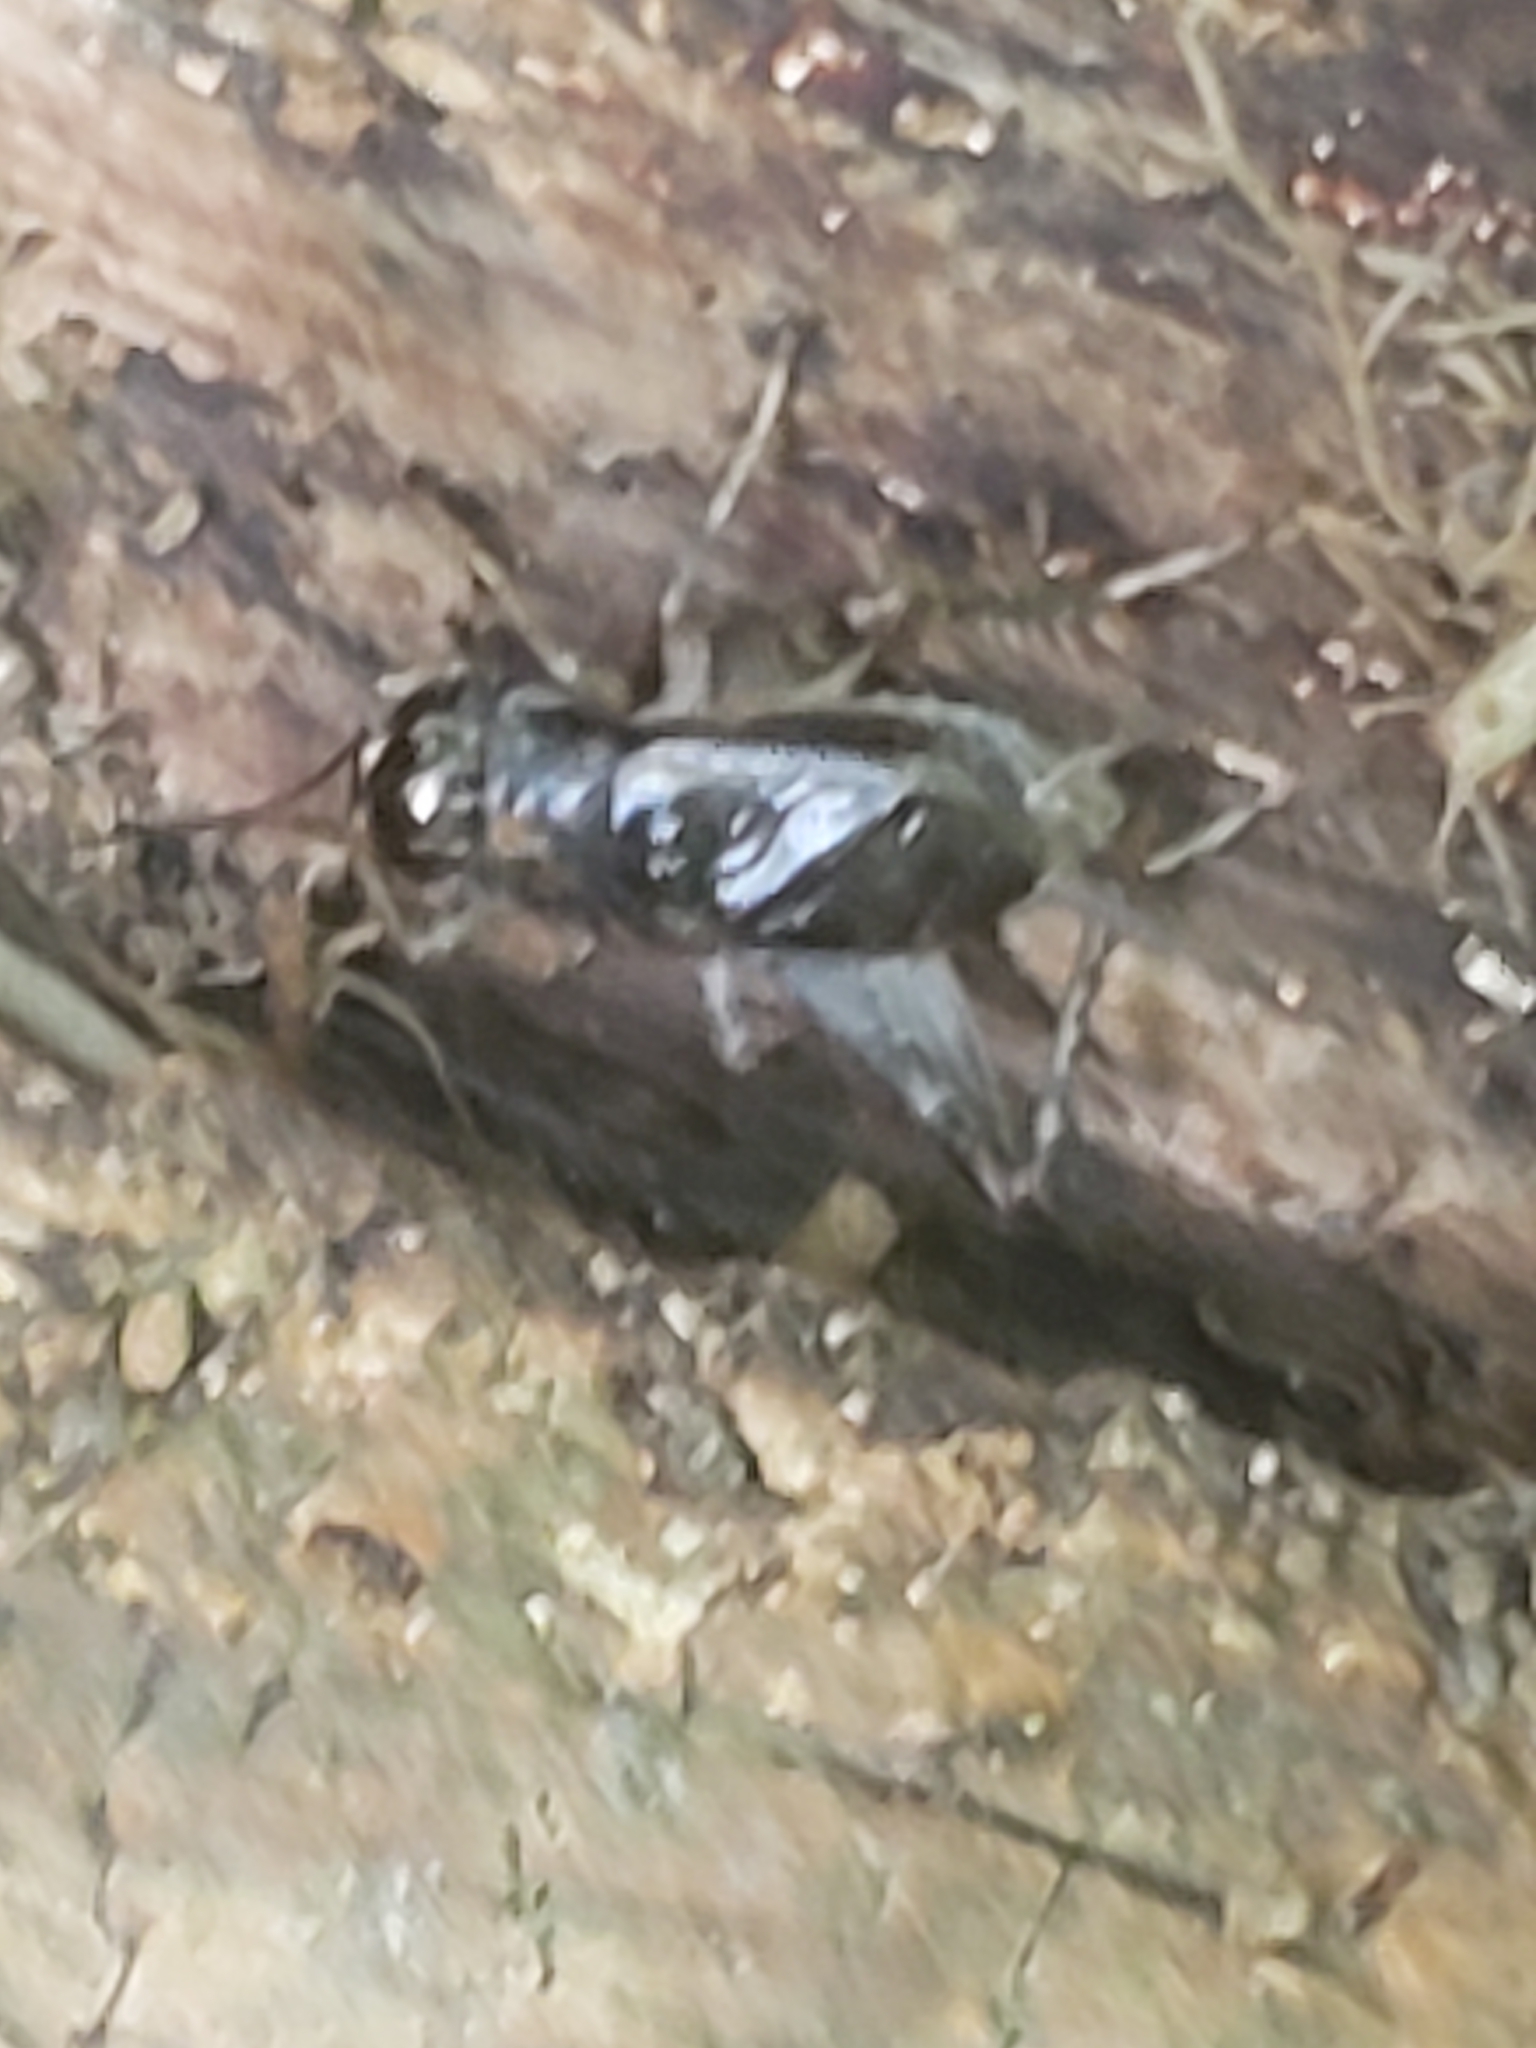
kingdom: Animalia
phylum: Arthropoda
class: Insecta
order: Orthoptera
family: Gryllidae
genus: Velarifictorus
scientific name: Velarifictorus micado
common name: Japanese burrowing cricket
